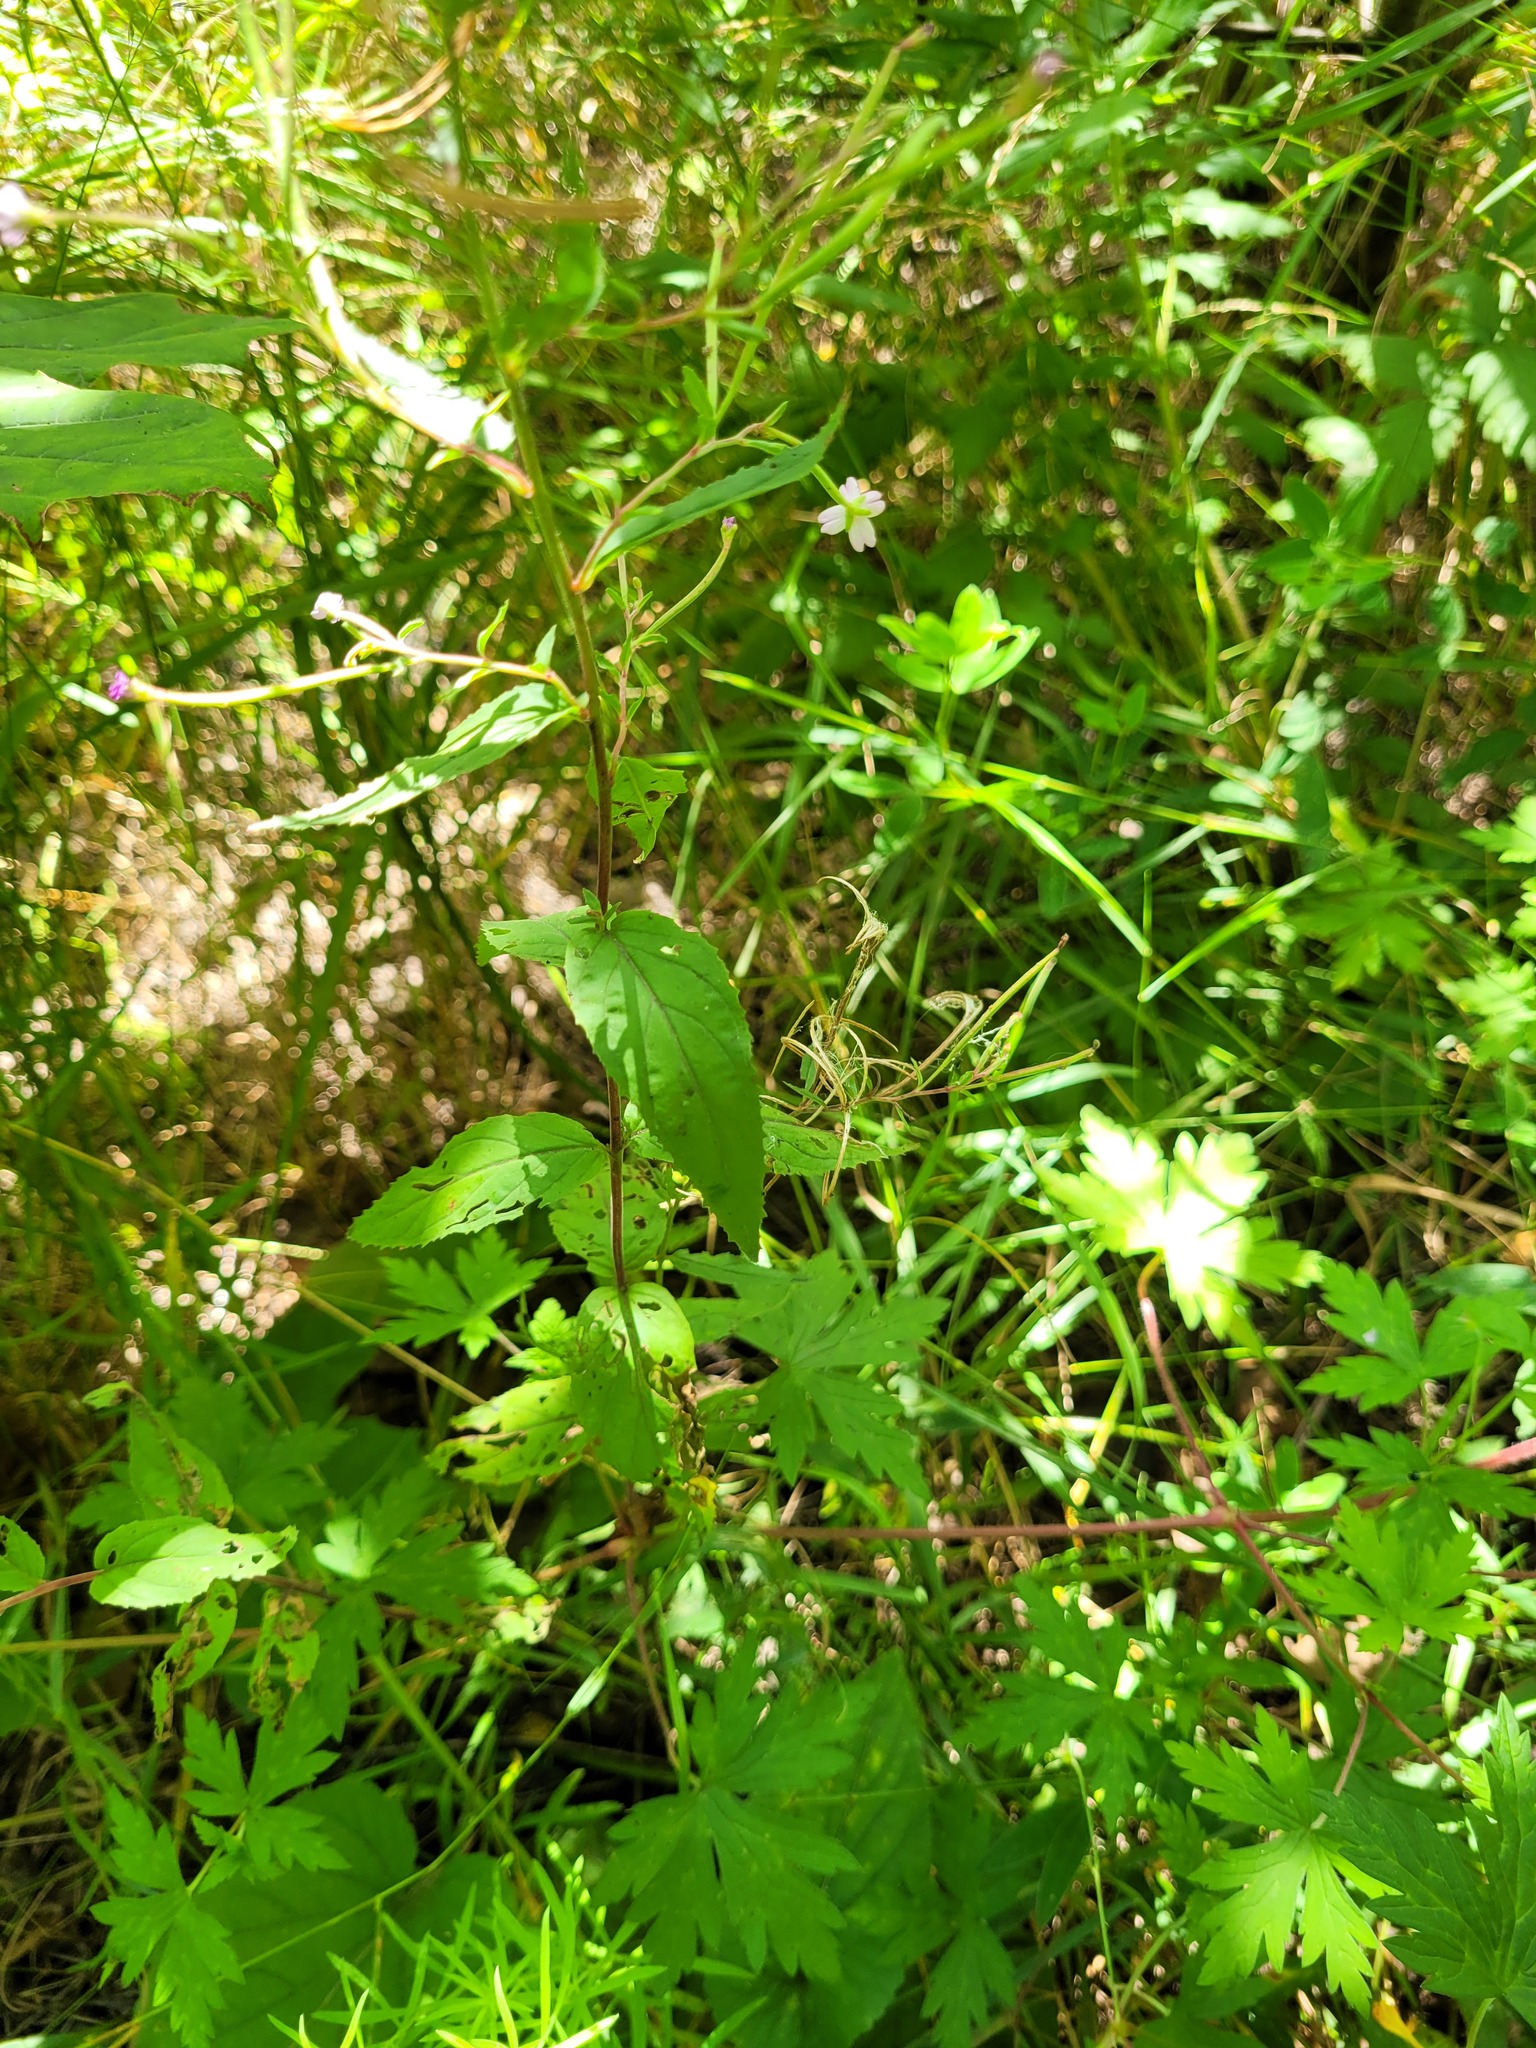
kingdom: Plantae
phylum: Tracheophyta
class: Magnoliopsida
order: Myrtales
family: Onagraceae
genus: Epilobium
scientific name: Epilobium montanum
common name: Broad-leaved willowherb
